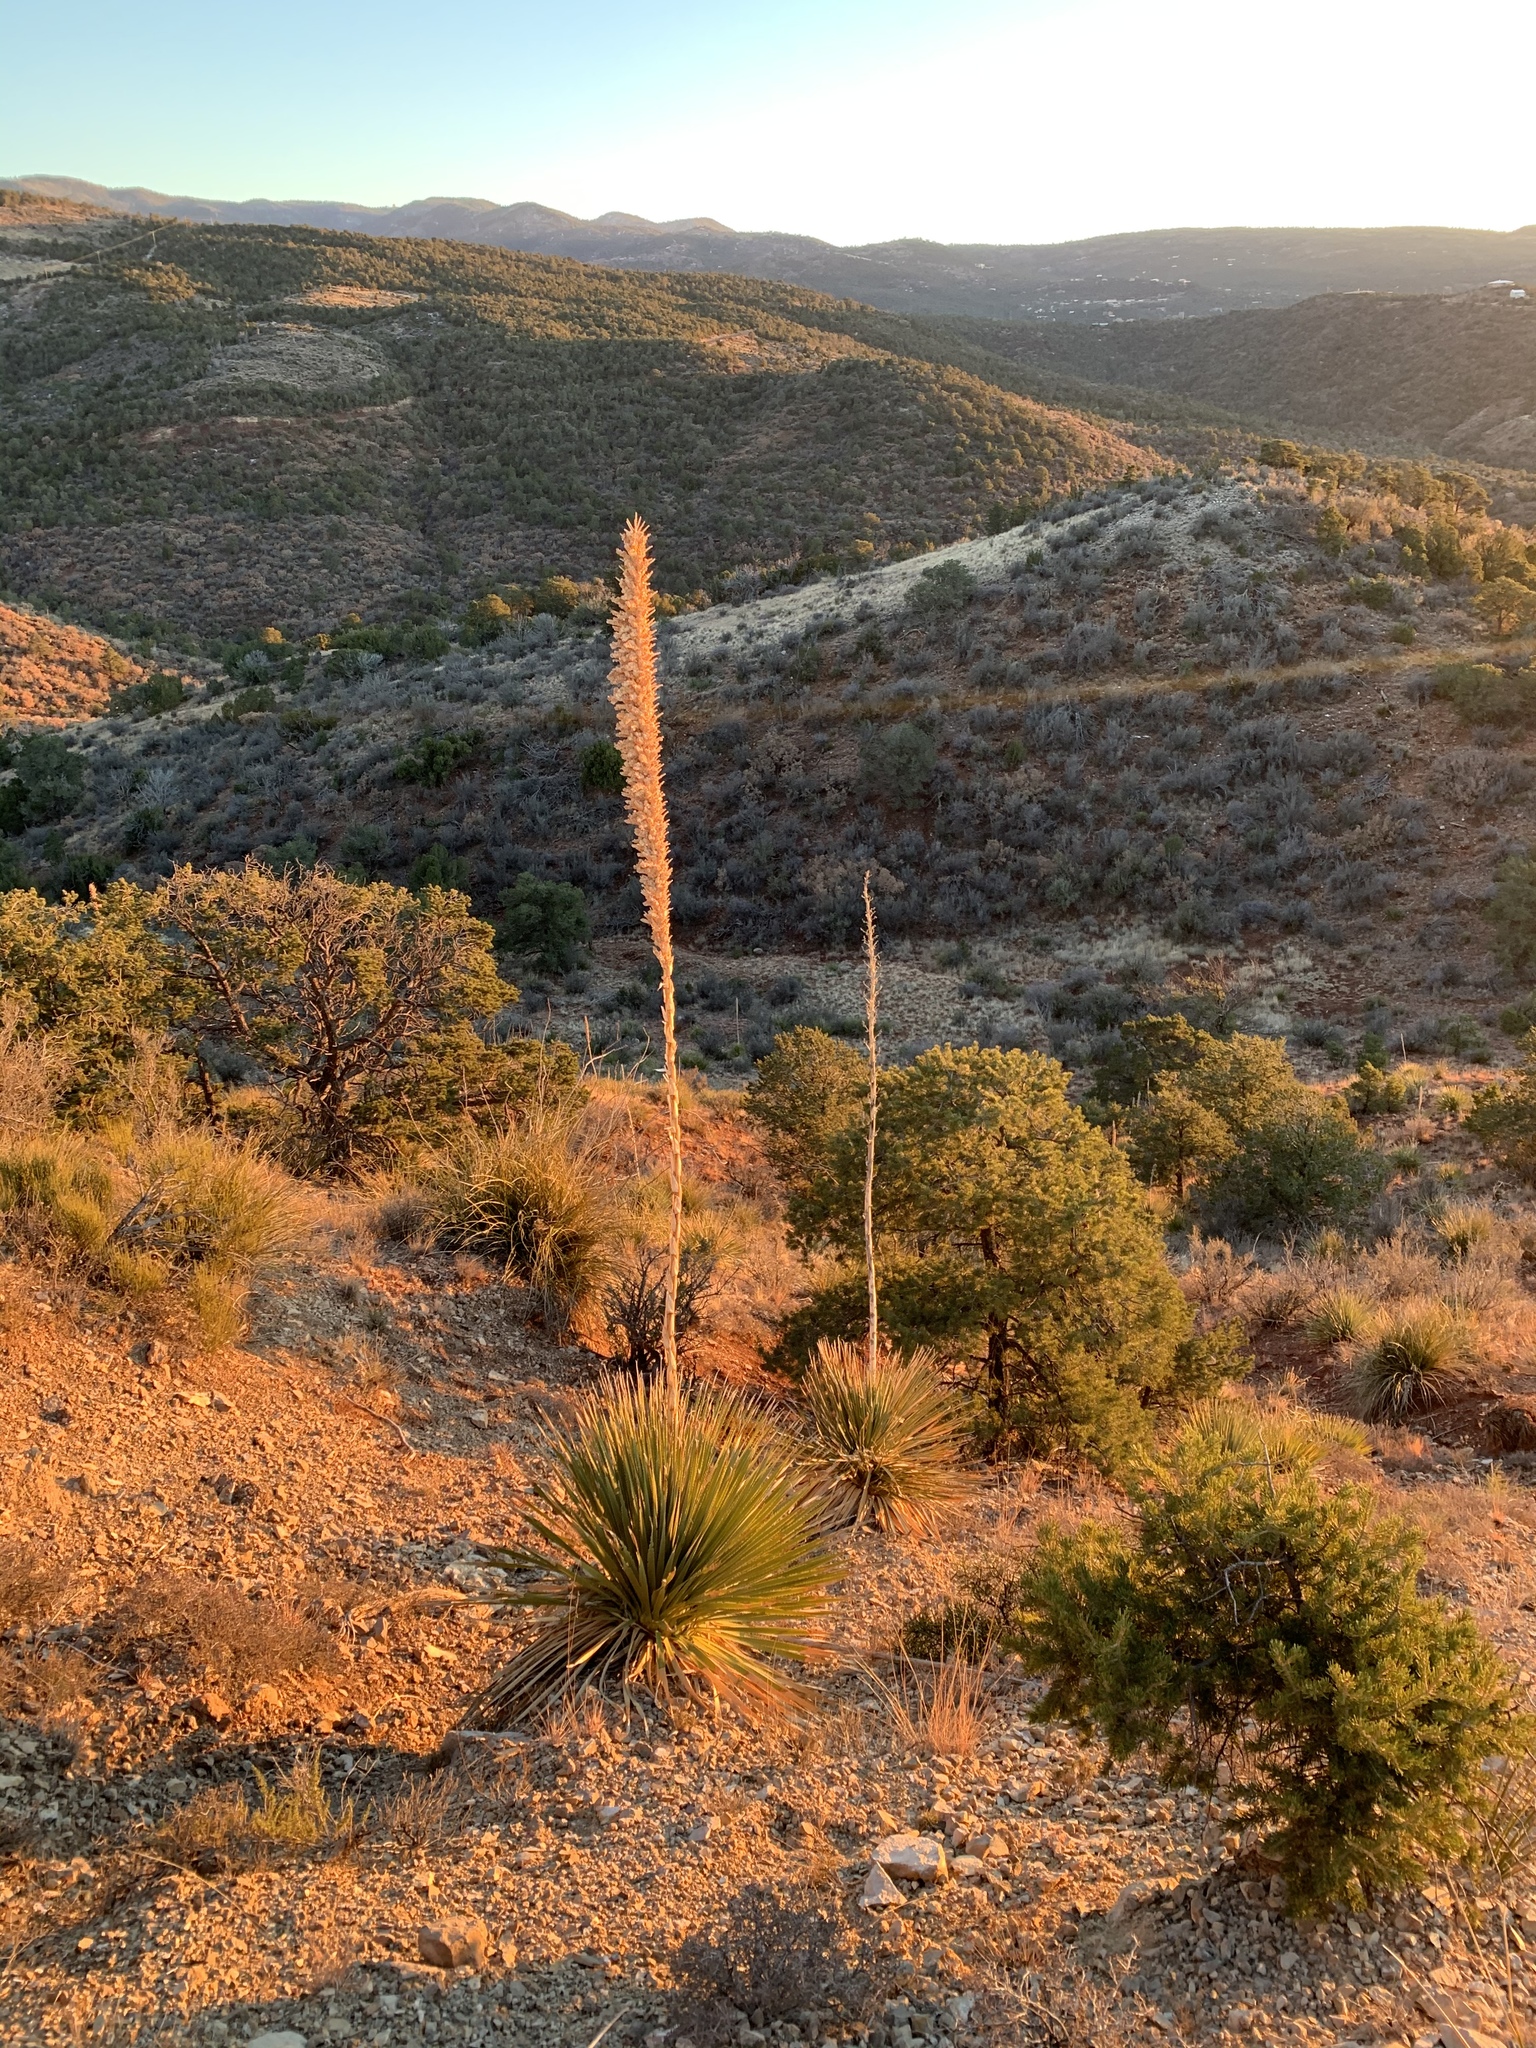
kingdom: Plantae
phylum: Tracheophyta
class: Liliopsida
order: Asparagales
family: Asparagaceae
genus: Dasylirion
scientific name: Dasylirion wheeleri
